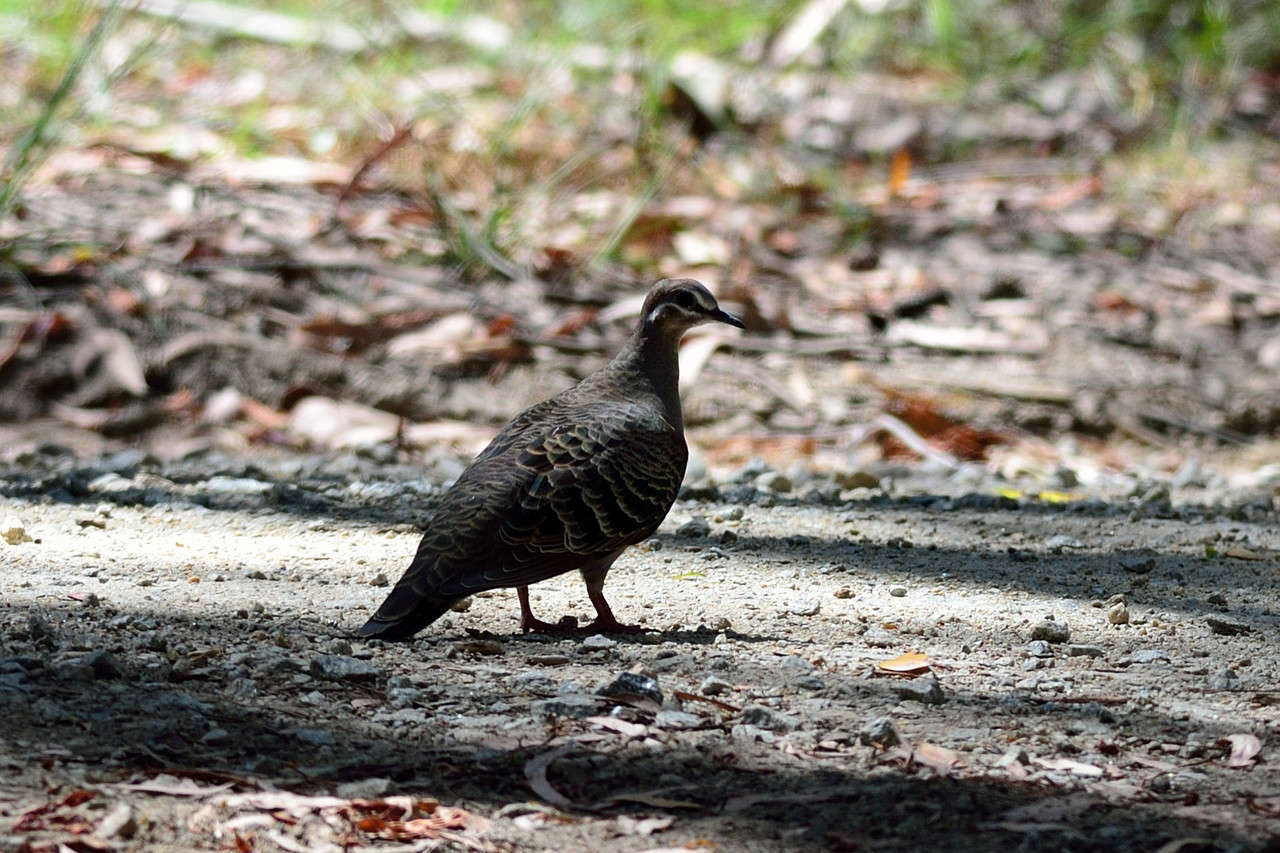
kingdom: Animalia
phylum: Chordata
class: Aves
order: Columbiformes
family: Columbidae
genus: Phaps
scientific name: Phaps chalcoptera
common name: Common bronzewing
